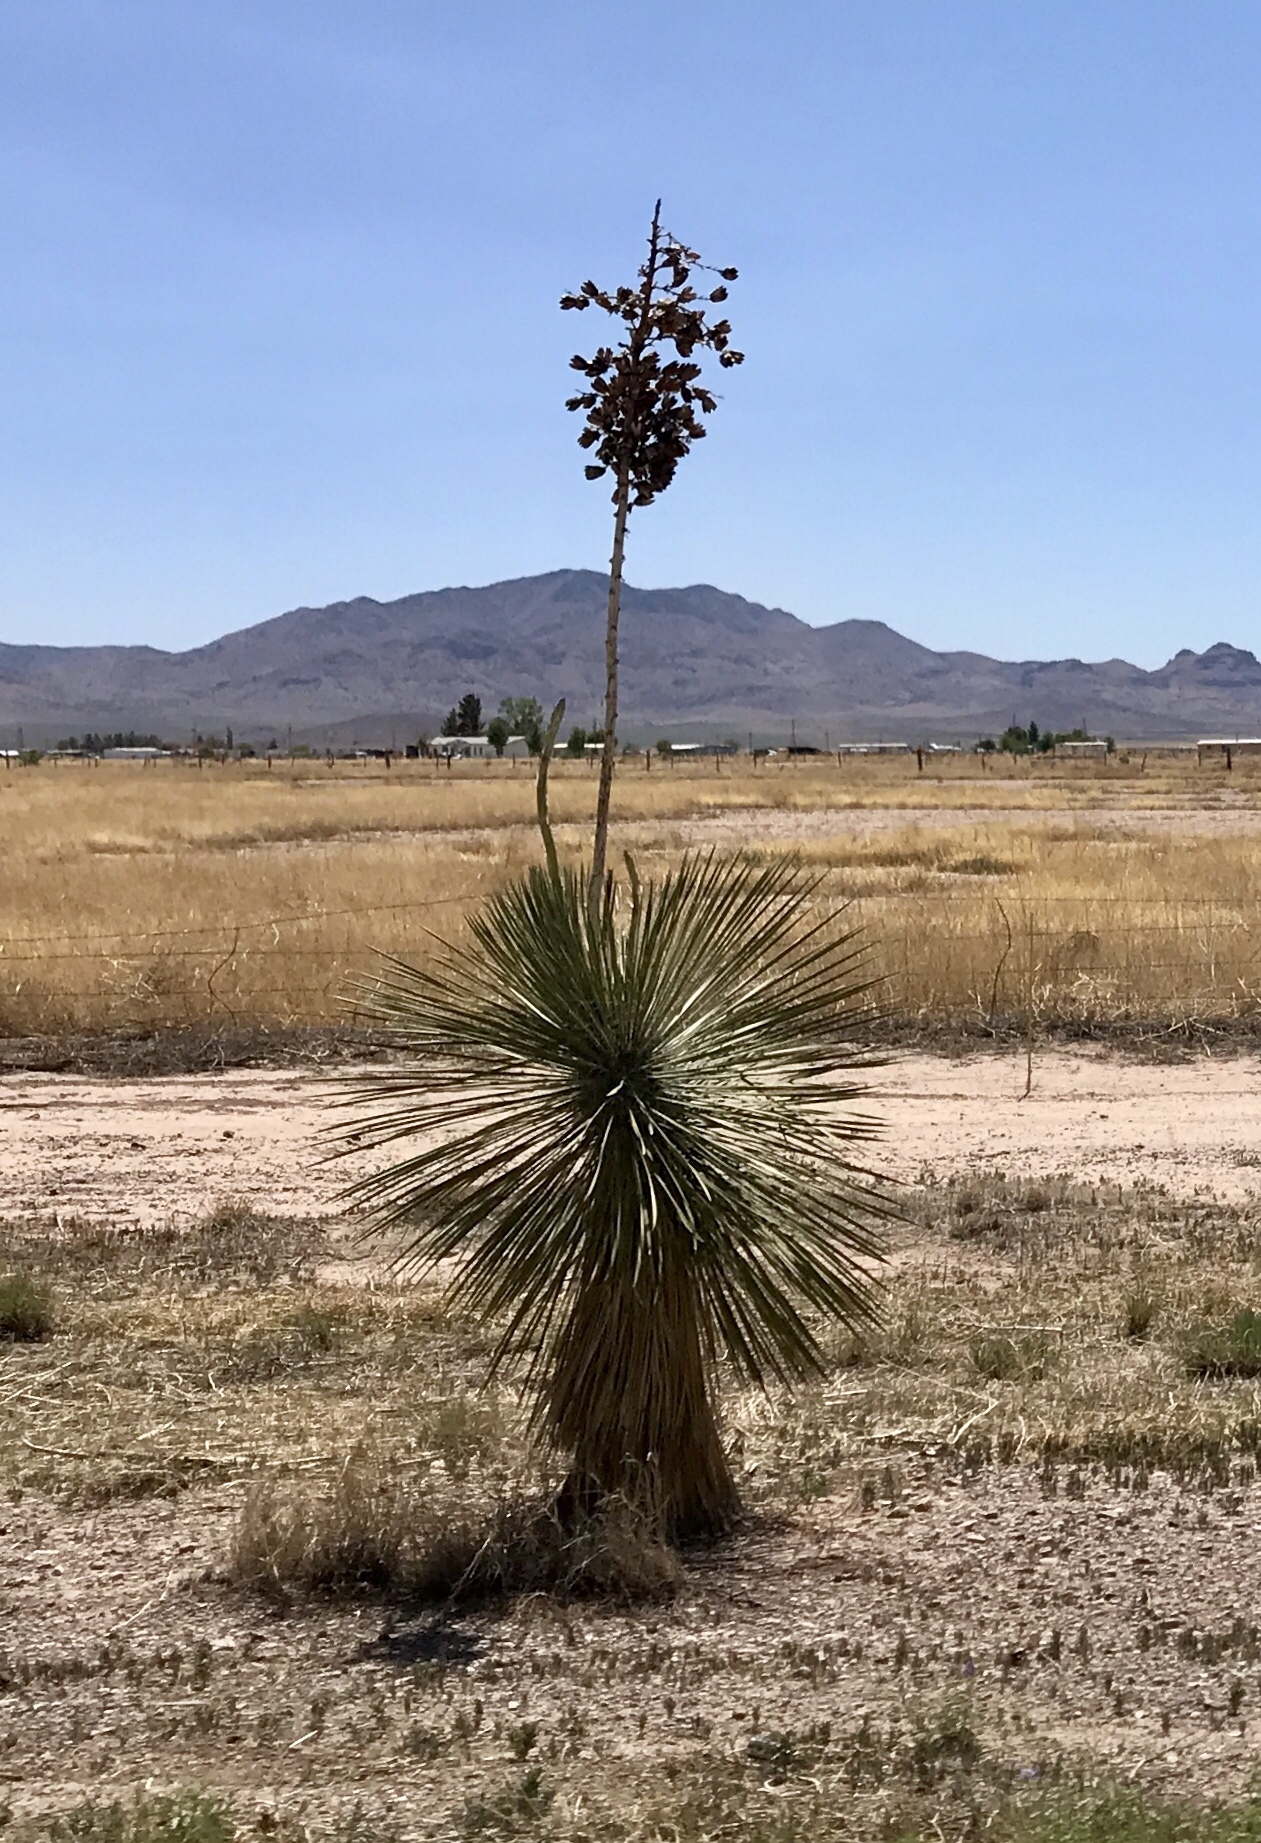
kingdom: Plantae
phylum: Tracheophyta
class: Liliopsida
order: Asparagales
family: Asparagaceae
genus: Yucca
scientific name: Yucca elata
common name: Palmella
